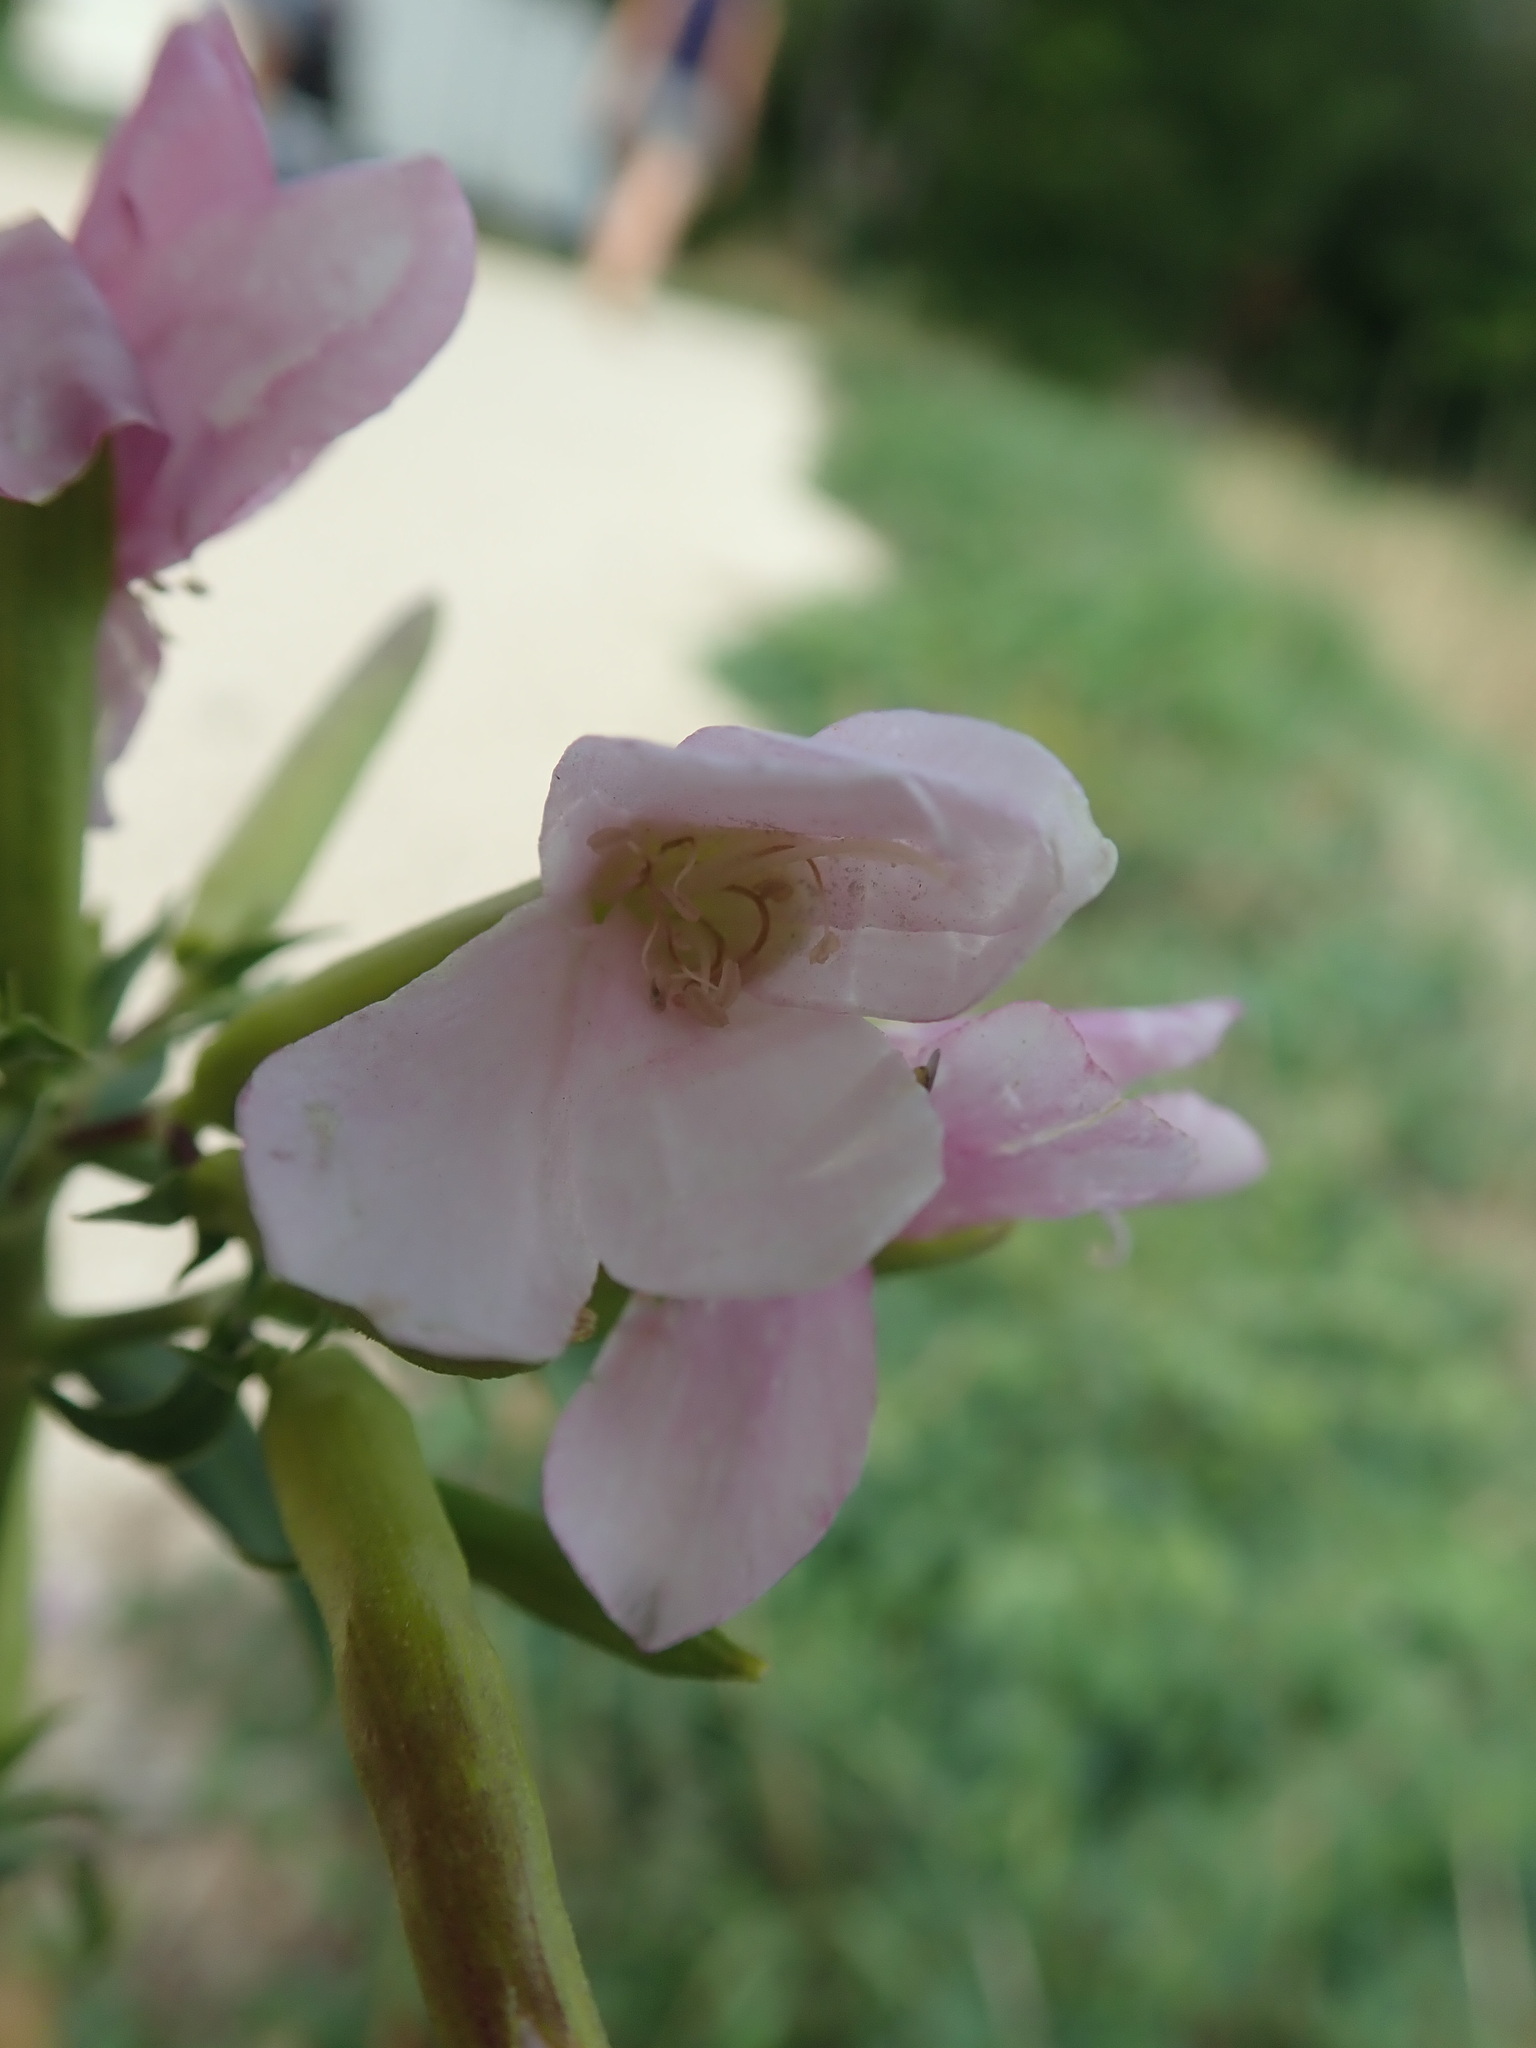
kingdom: Plantae
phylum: Tracheophyta
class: Magnoliopsida
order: Caryophyllales
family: Caryophyllaceae
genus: Saponaria
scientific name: Saponaria officinalis
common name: Soapwort
